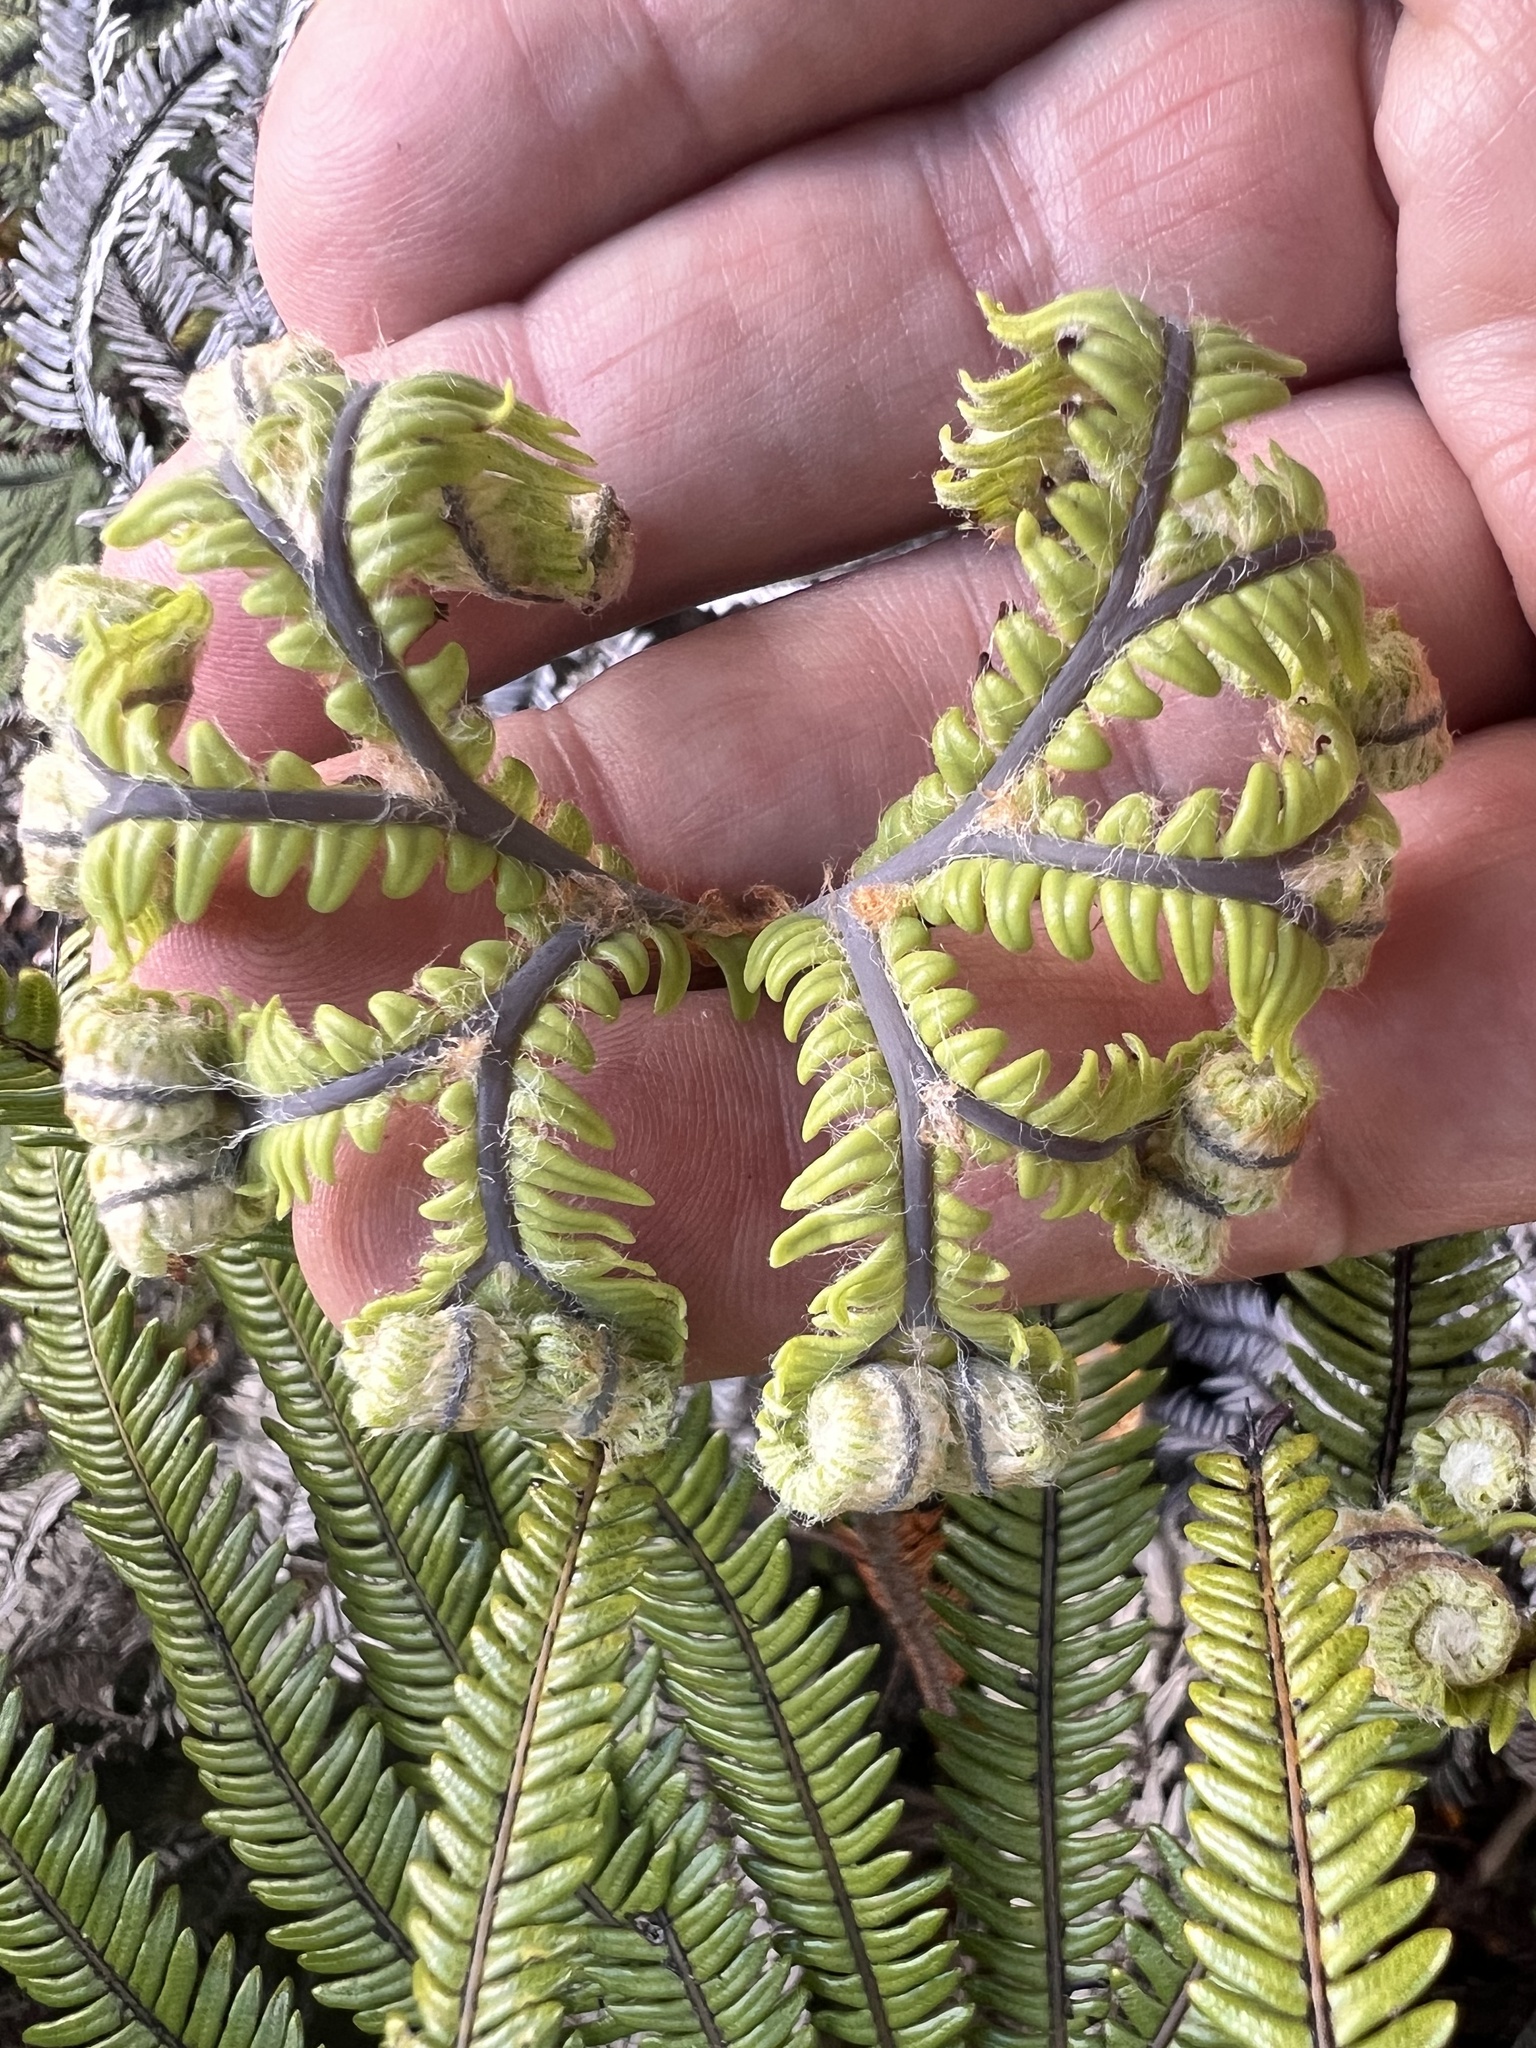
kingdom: Plantae
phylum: Tracheophyta
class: Polypodiopsida
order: Gleicheniales
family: Gleicheniaceae
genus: Sticherus
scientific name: Sticherus cunninghamii
